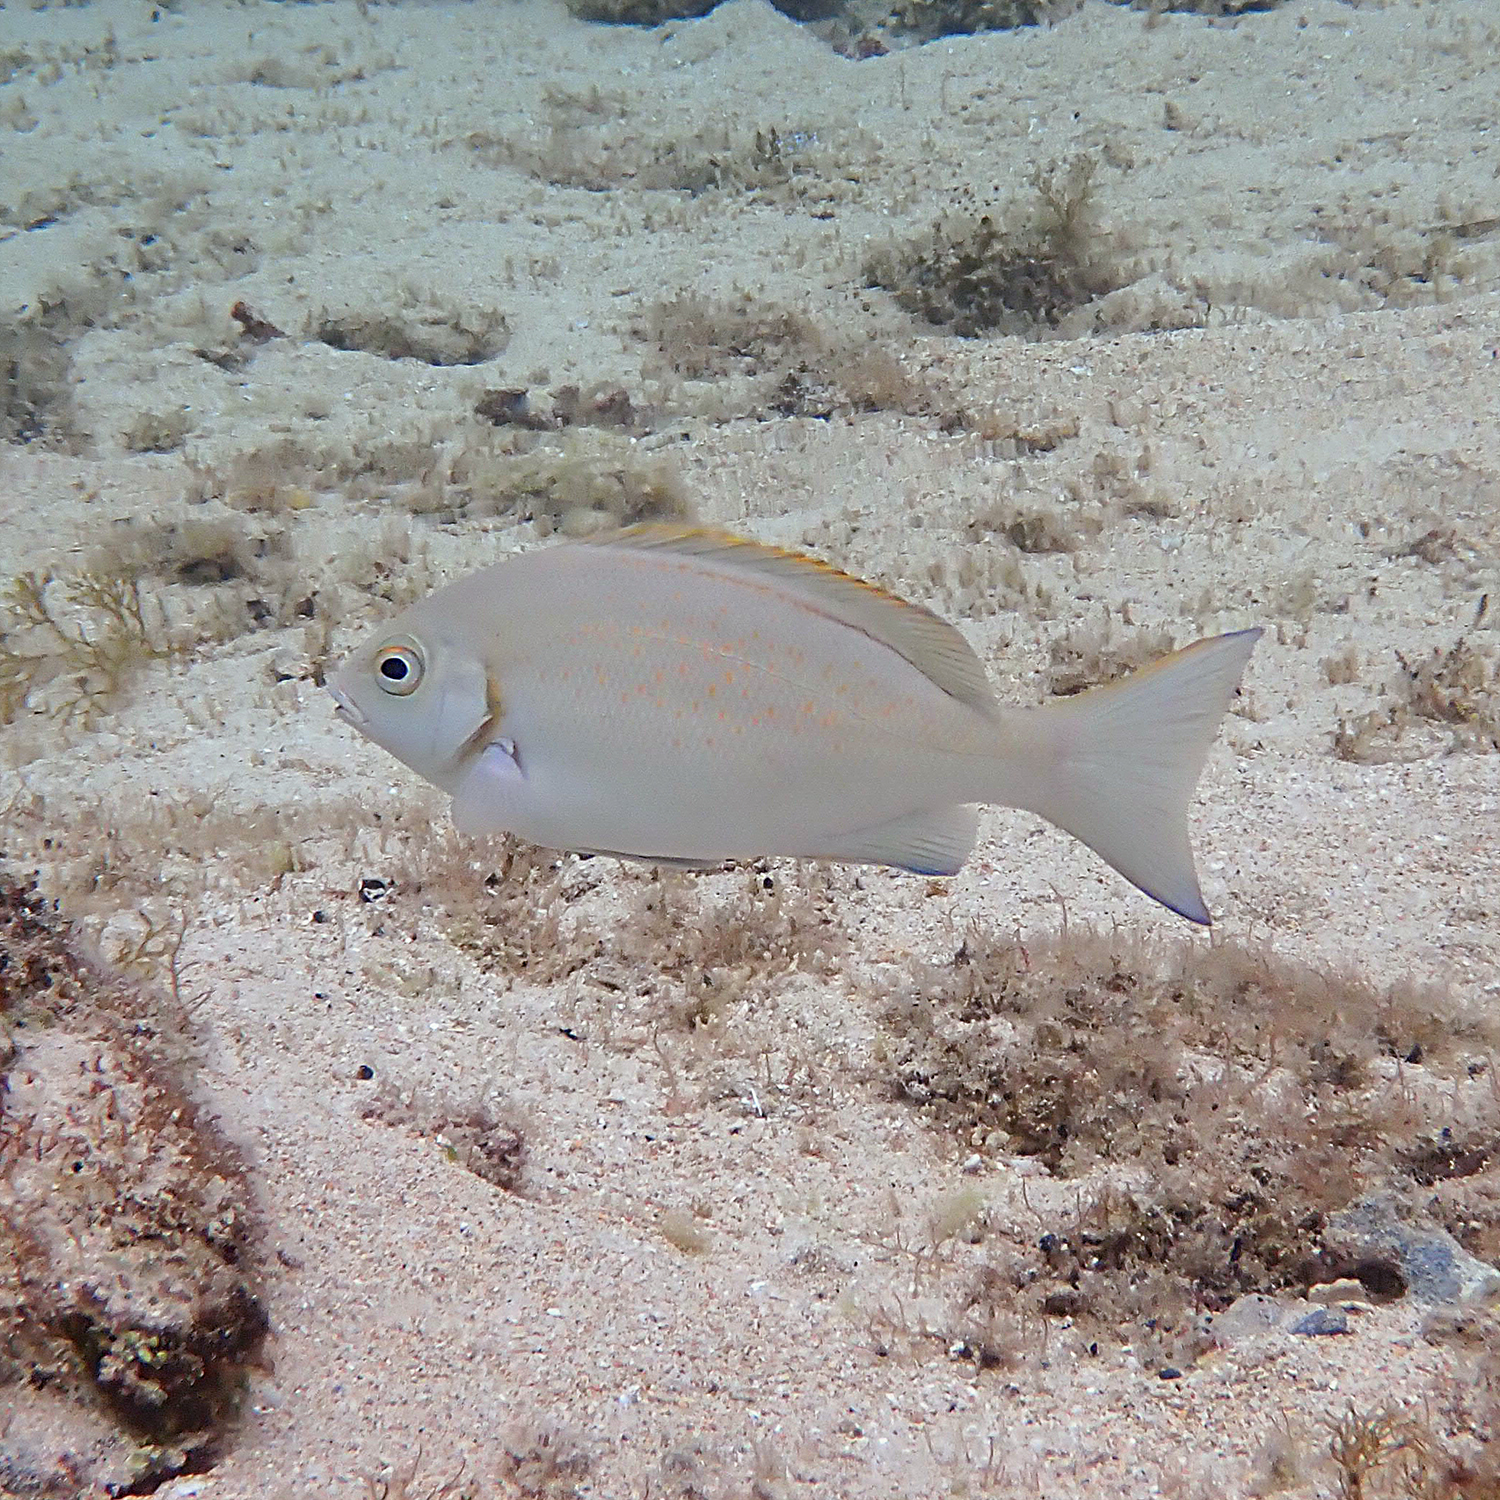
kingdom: Animalia
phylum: Chordata
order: Perciformes
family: Kyphosidae
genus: Girella
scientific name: Girella cyanea
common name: Bluefish
